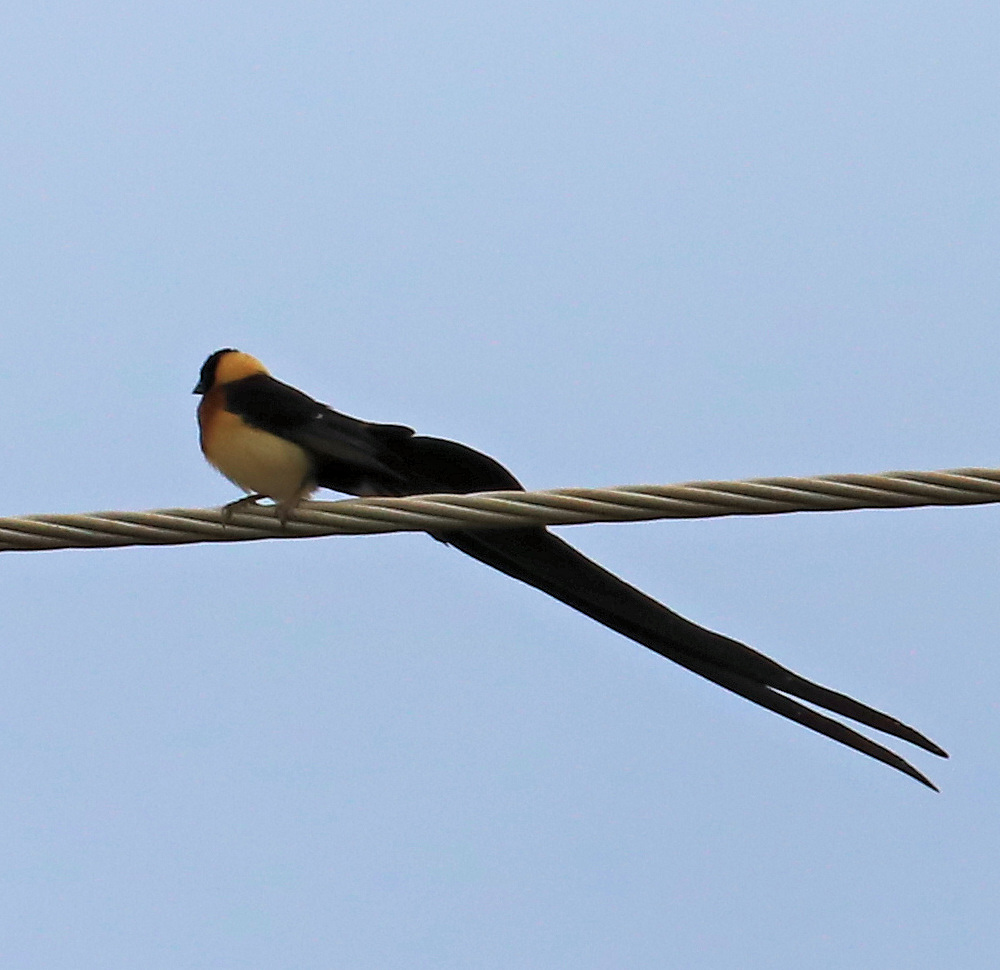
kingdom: Animalia
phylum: Chordata
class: Aves
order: Passeriformes
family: Viduidae
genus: Vidua
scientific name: Vidua paradisaea
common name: Long-tailed paradise whydah
